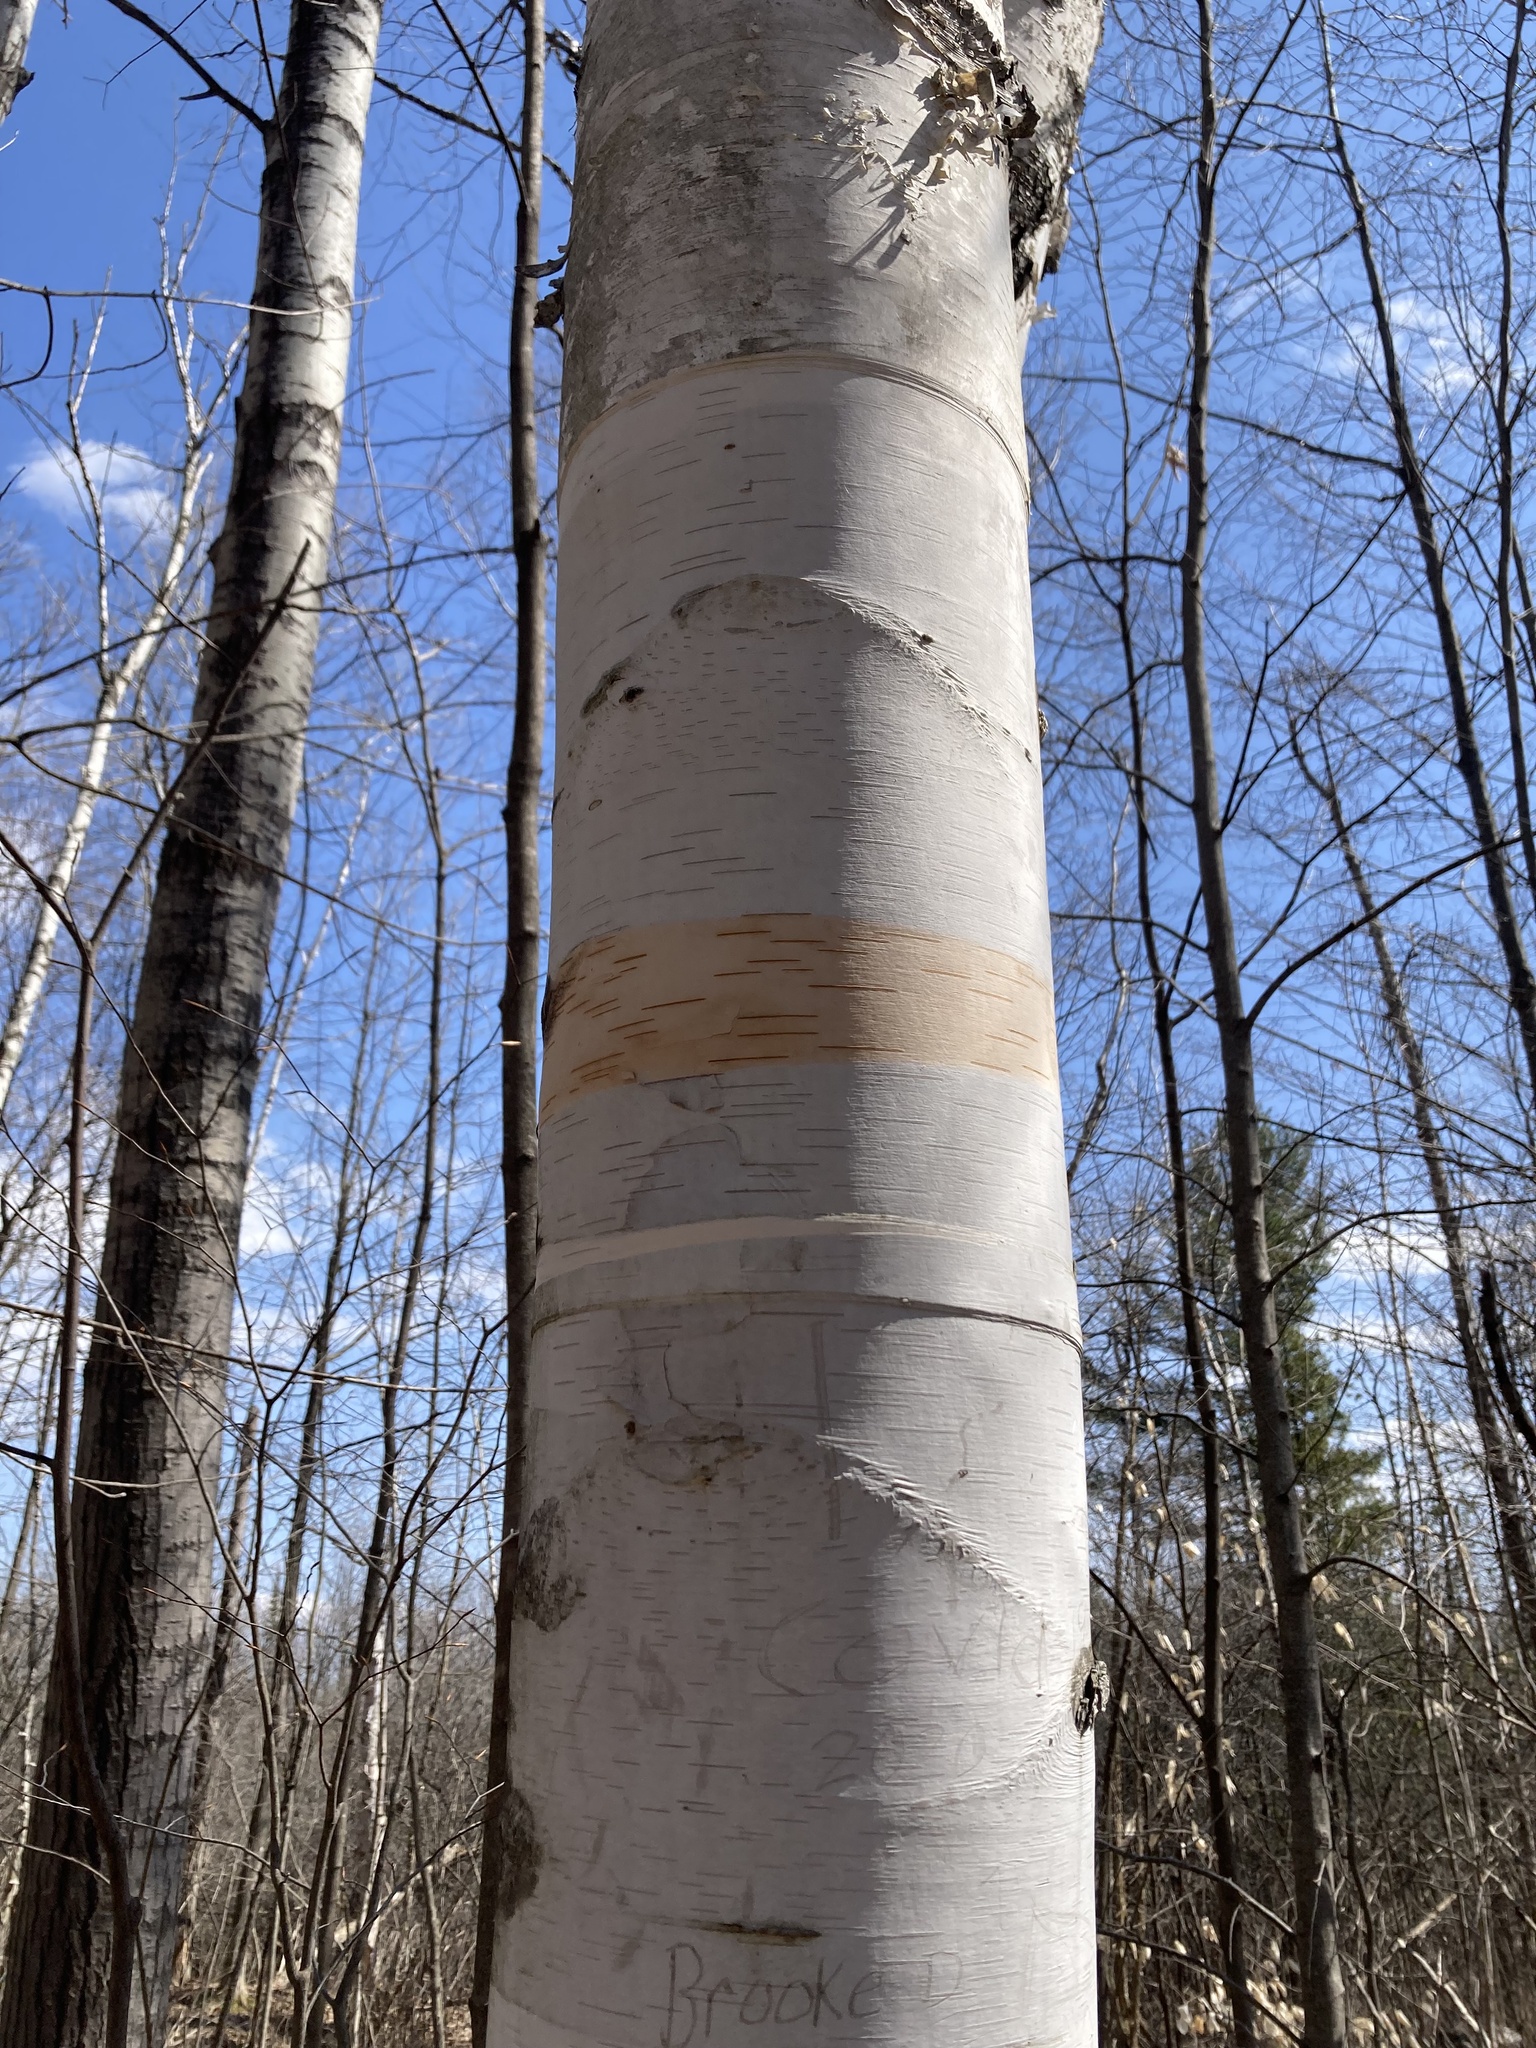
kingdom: Plantae
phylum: Tracheophyta
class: Magnoliopsida
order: Fagales
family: Betulaceae
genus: Betula
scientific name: Betula papyrifera
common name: Paper birch
